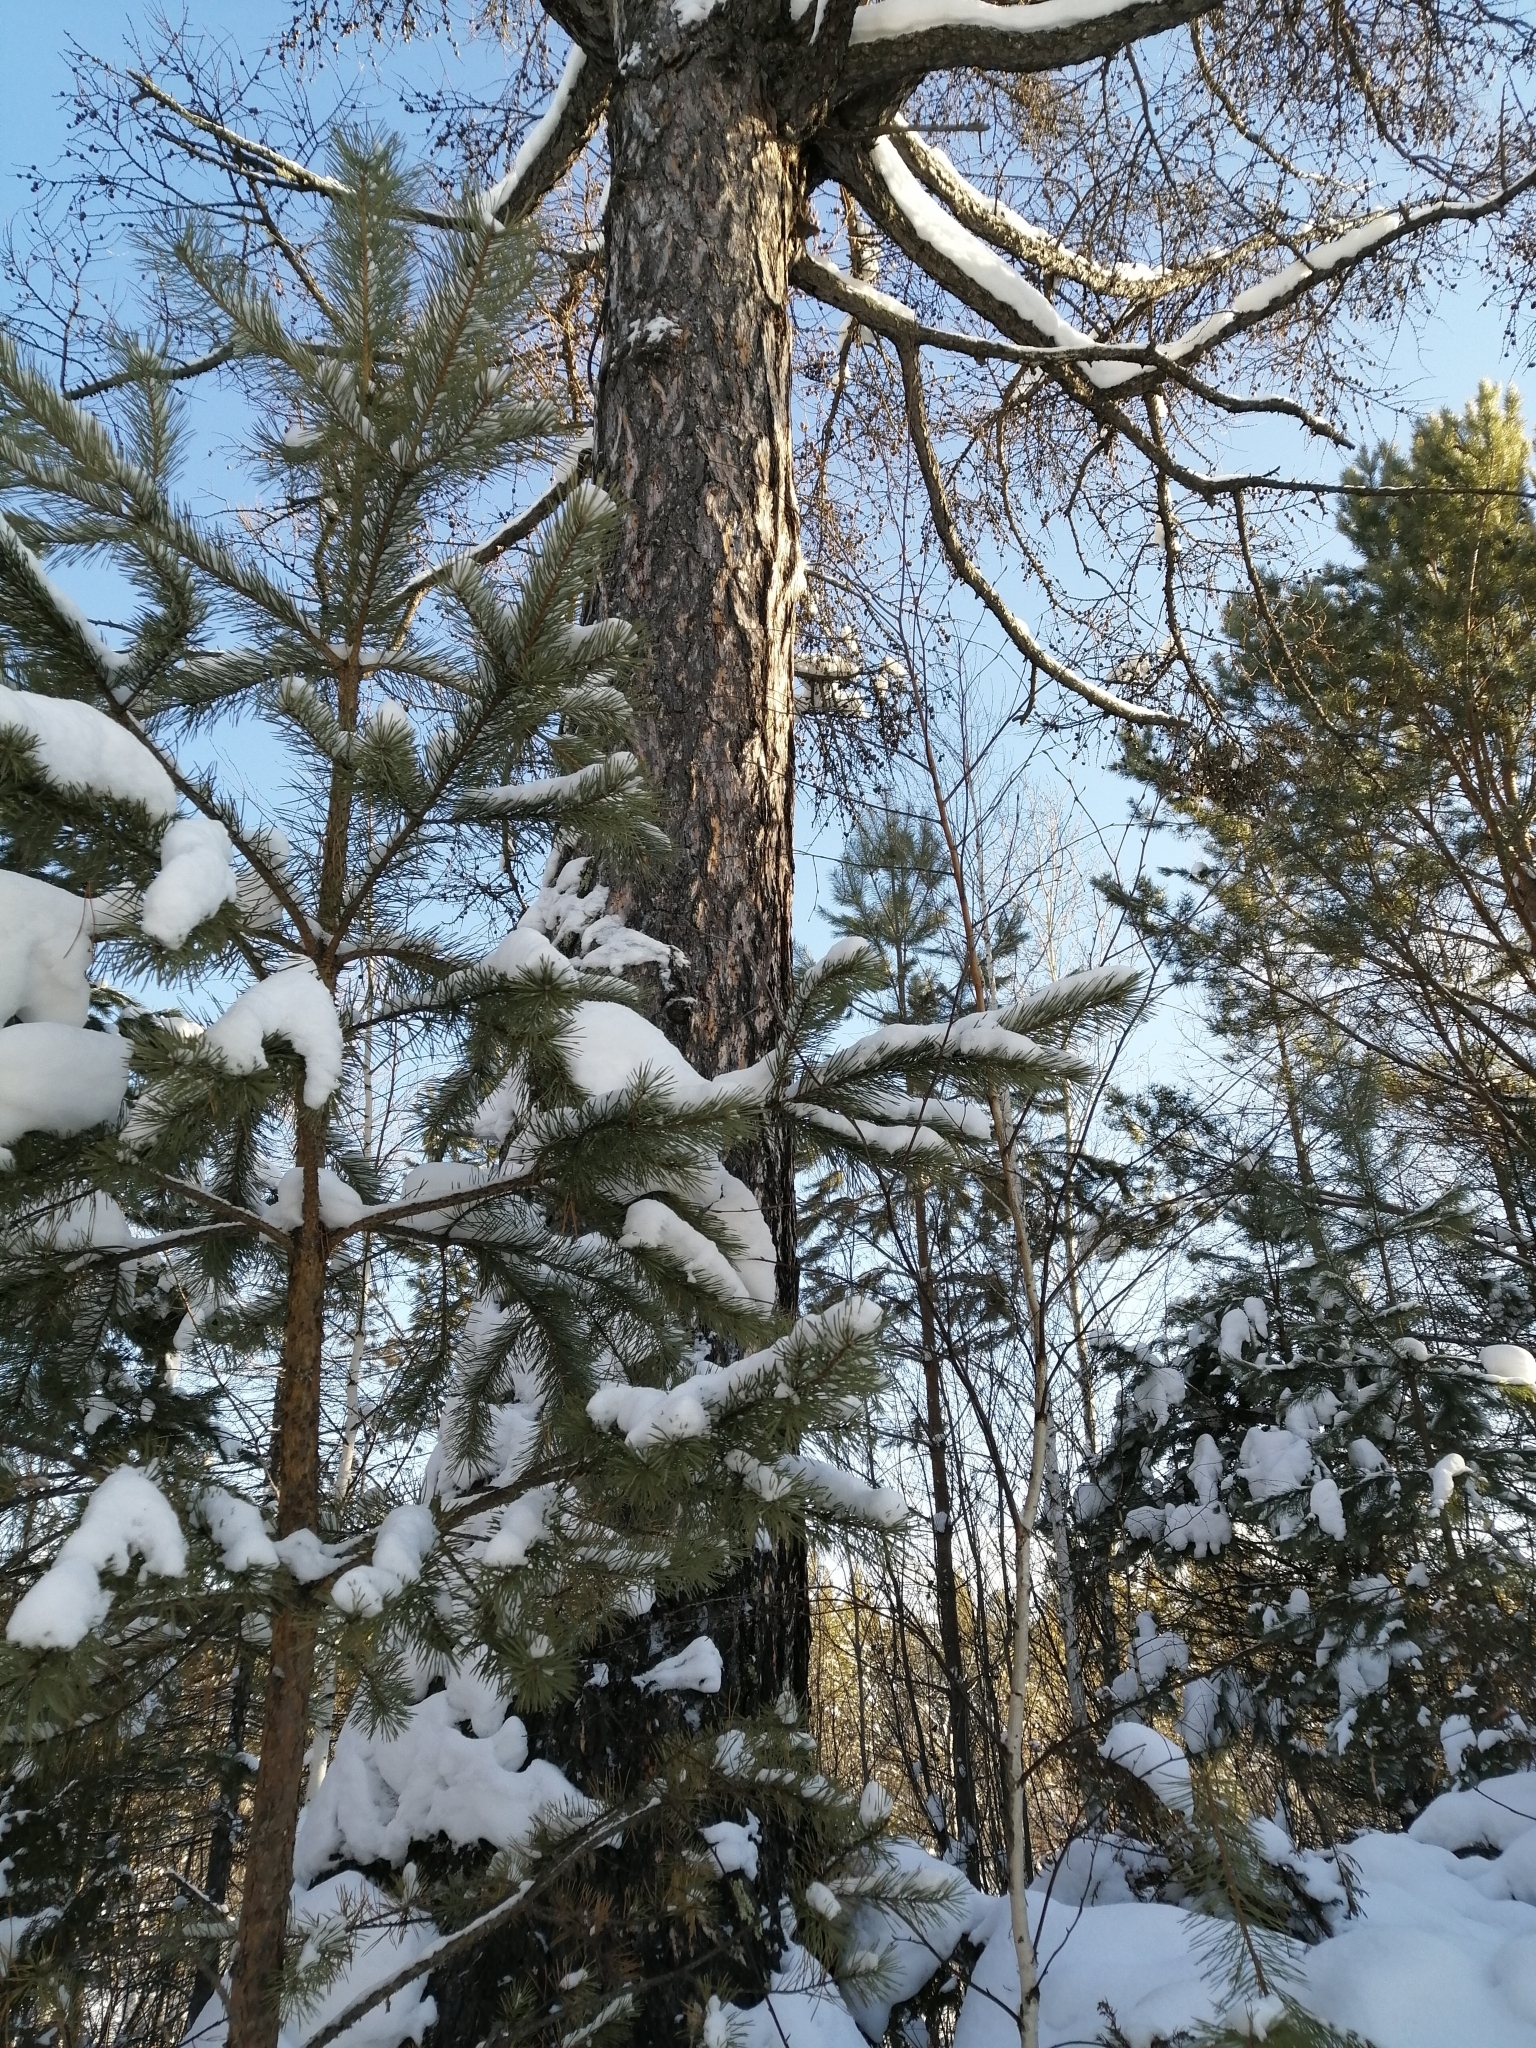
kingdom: Plantae
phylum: Tracheophyta
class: Pinopsida
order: Pinales
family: Pinaceae
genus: Larix
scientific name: Larix sibirica
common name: Siberian larch
